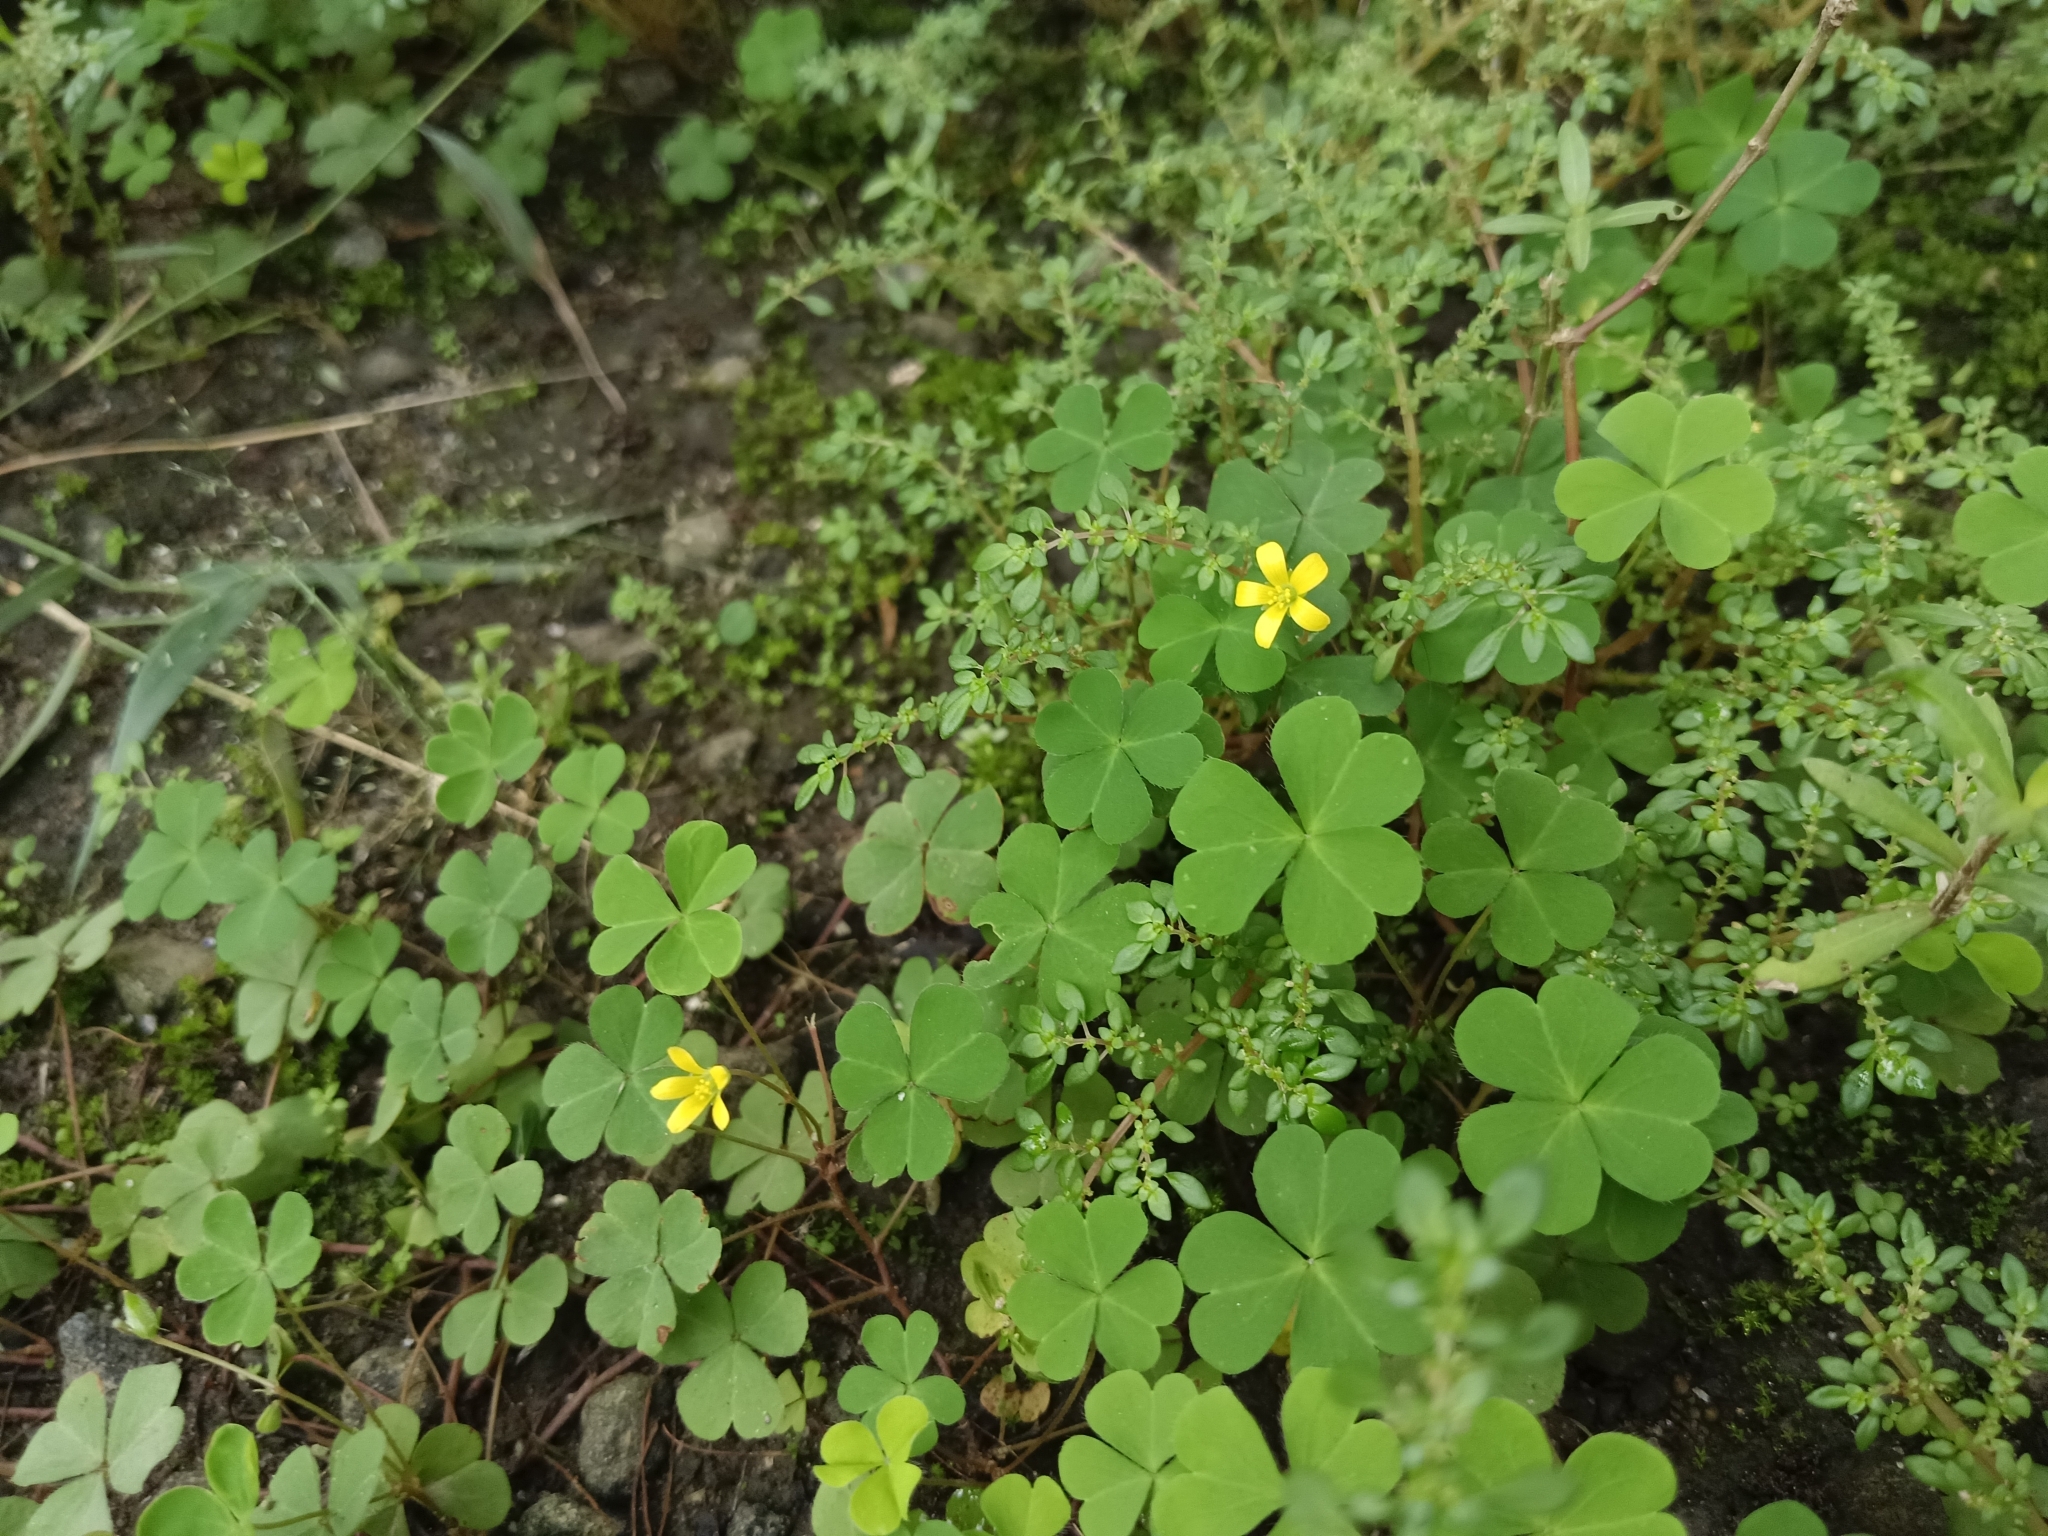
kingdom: Plantae
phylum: Tracheophyta
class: Magnoliopsida
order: Oxalidales
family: Oxalidaceae
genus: Oxalis
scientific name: Oxalis corniculata
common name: Procumbent yellow-sorrel
